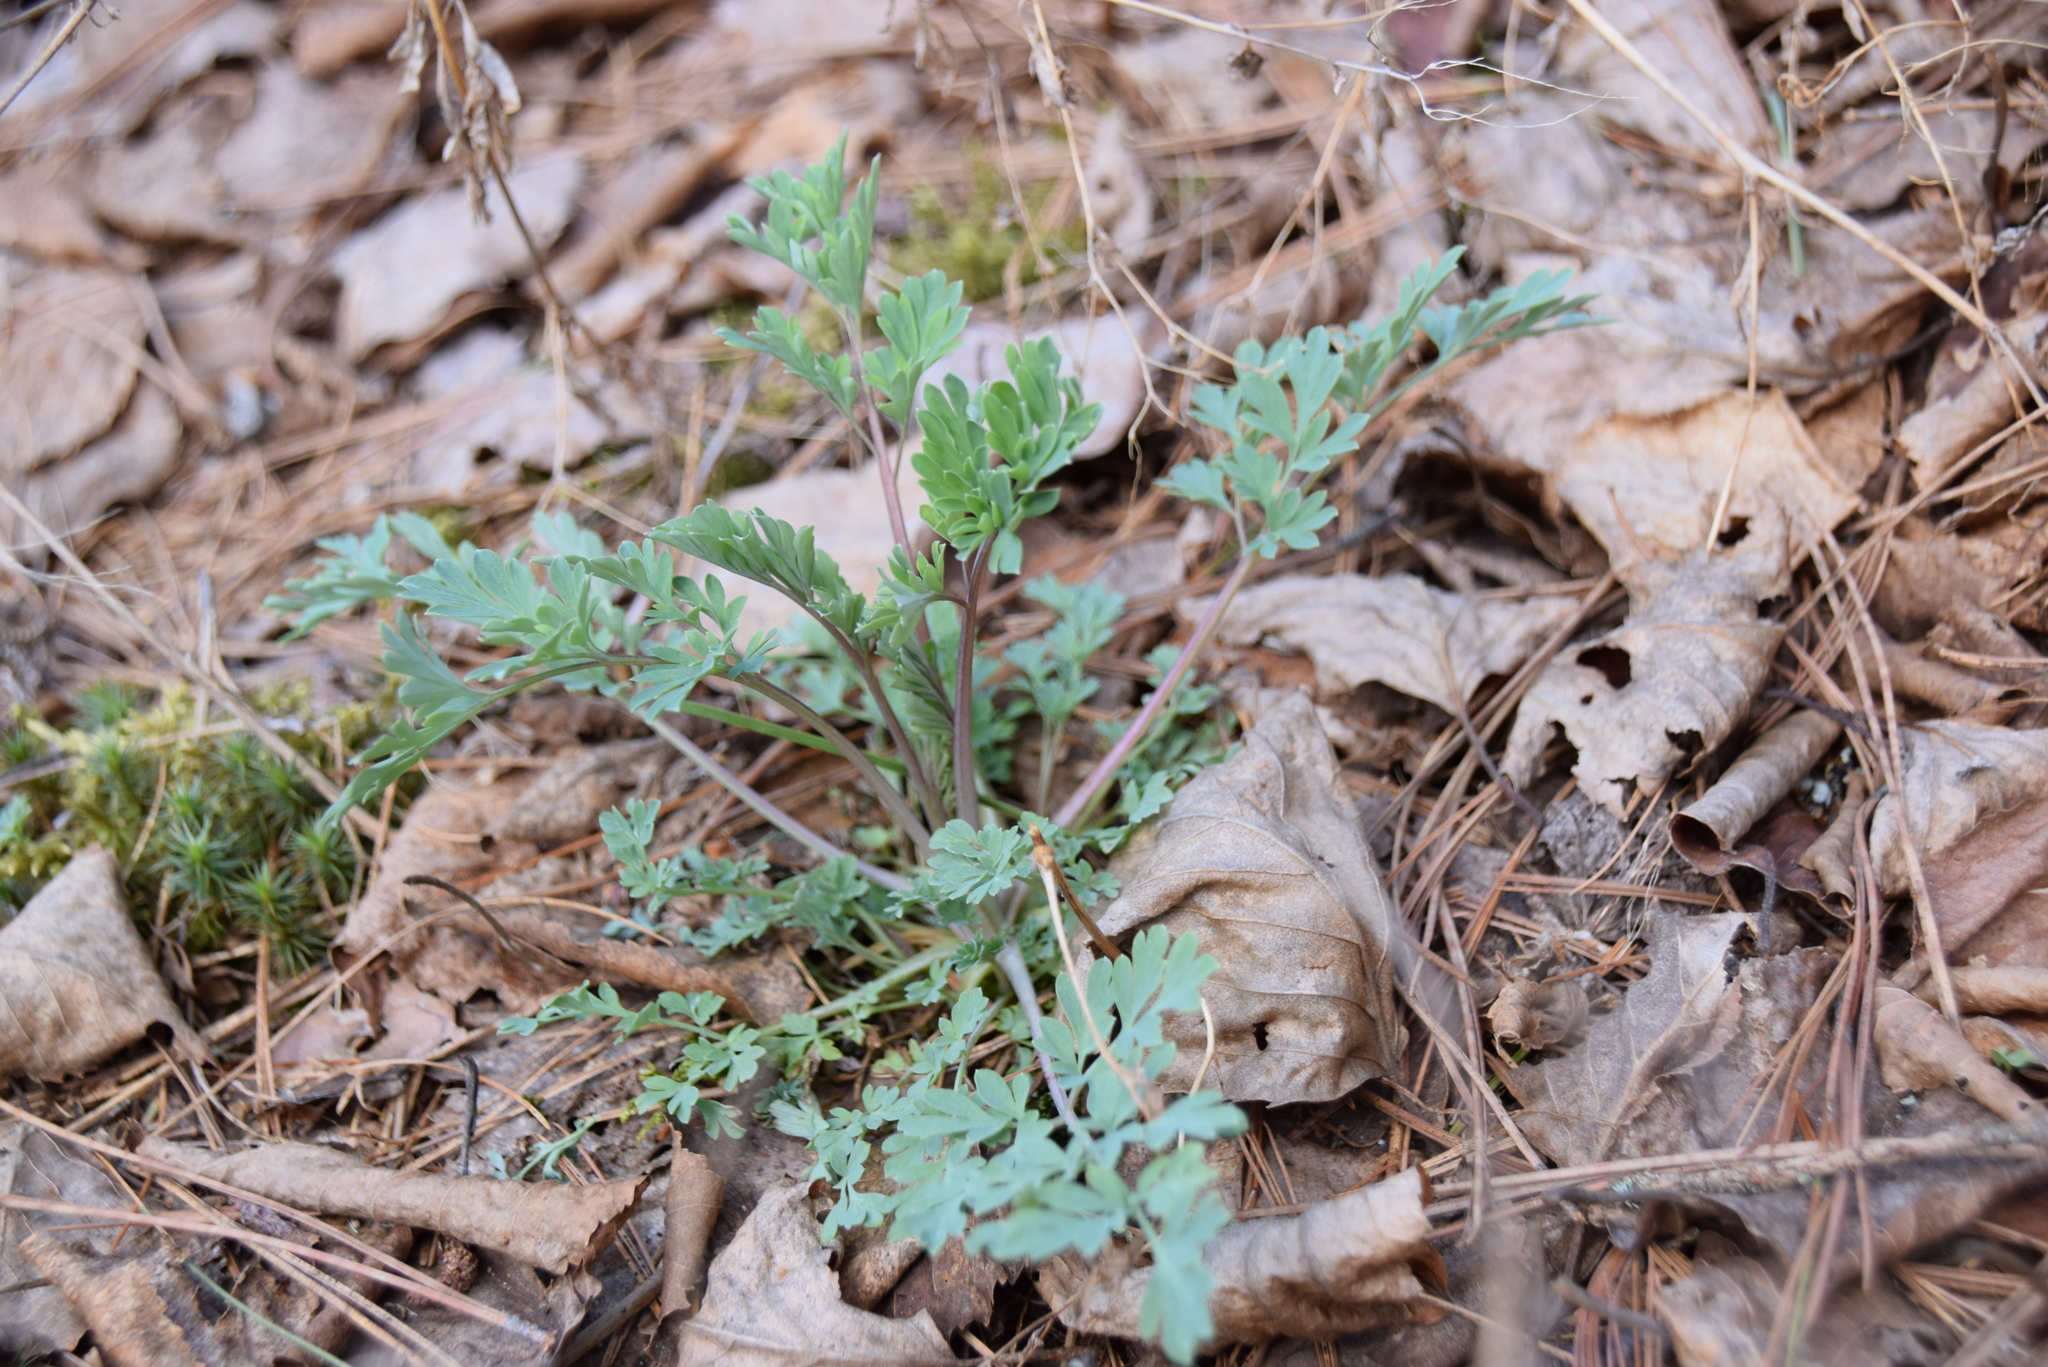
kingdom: Plantae
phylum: Tracheophyta
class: Magnoliopsida
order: Ranunculales
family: Papaveraceae
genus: Capnoides
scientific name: Capnoides sempervirens
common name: Rock harlequin
